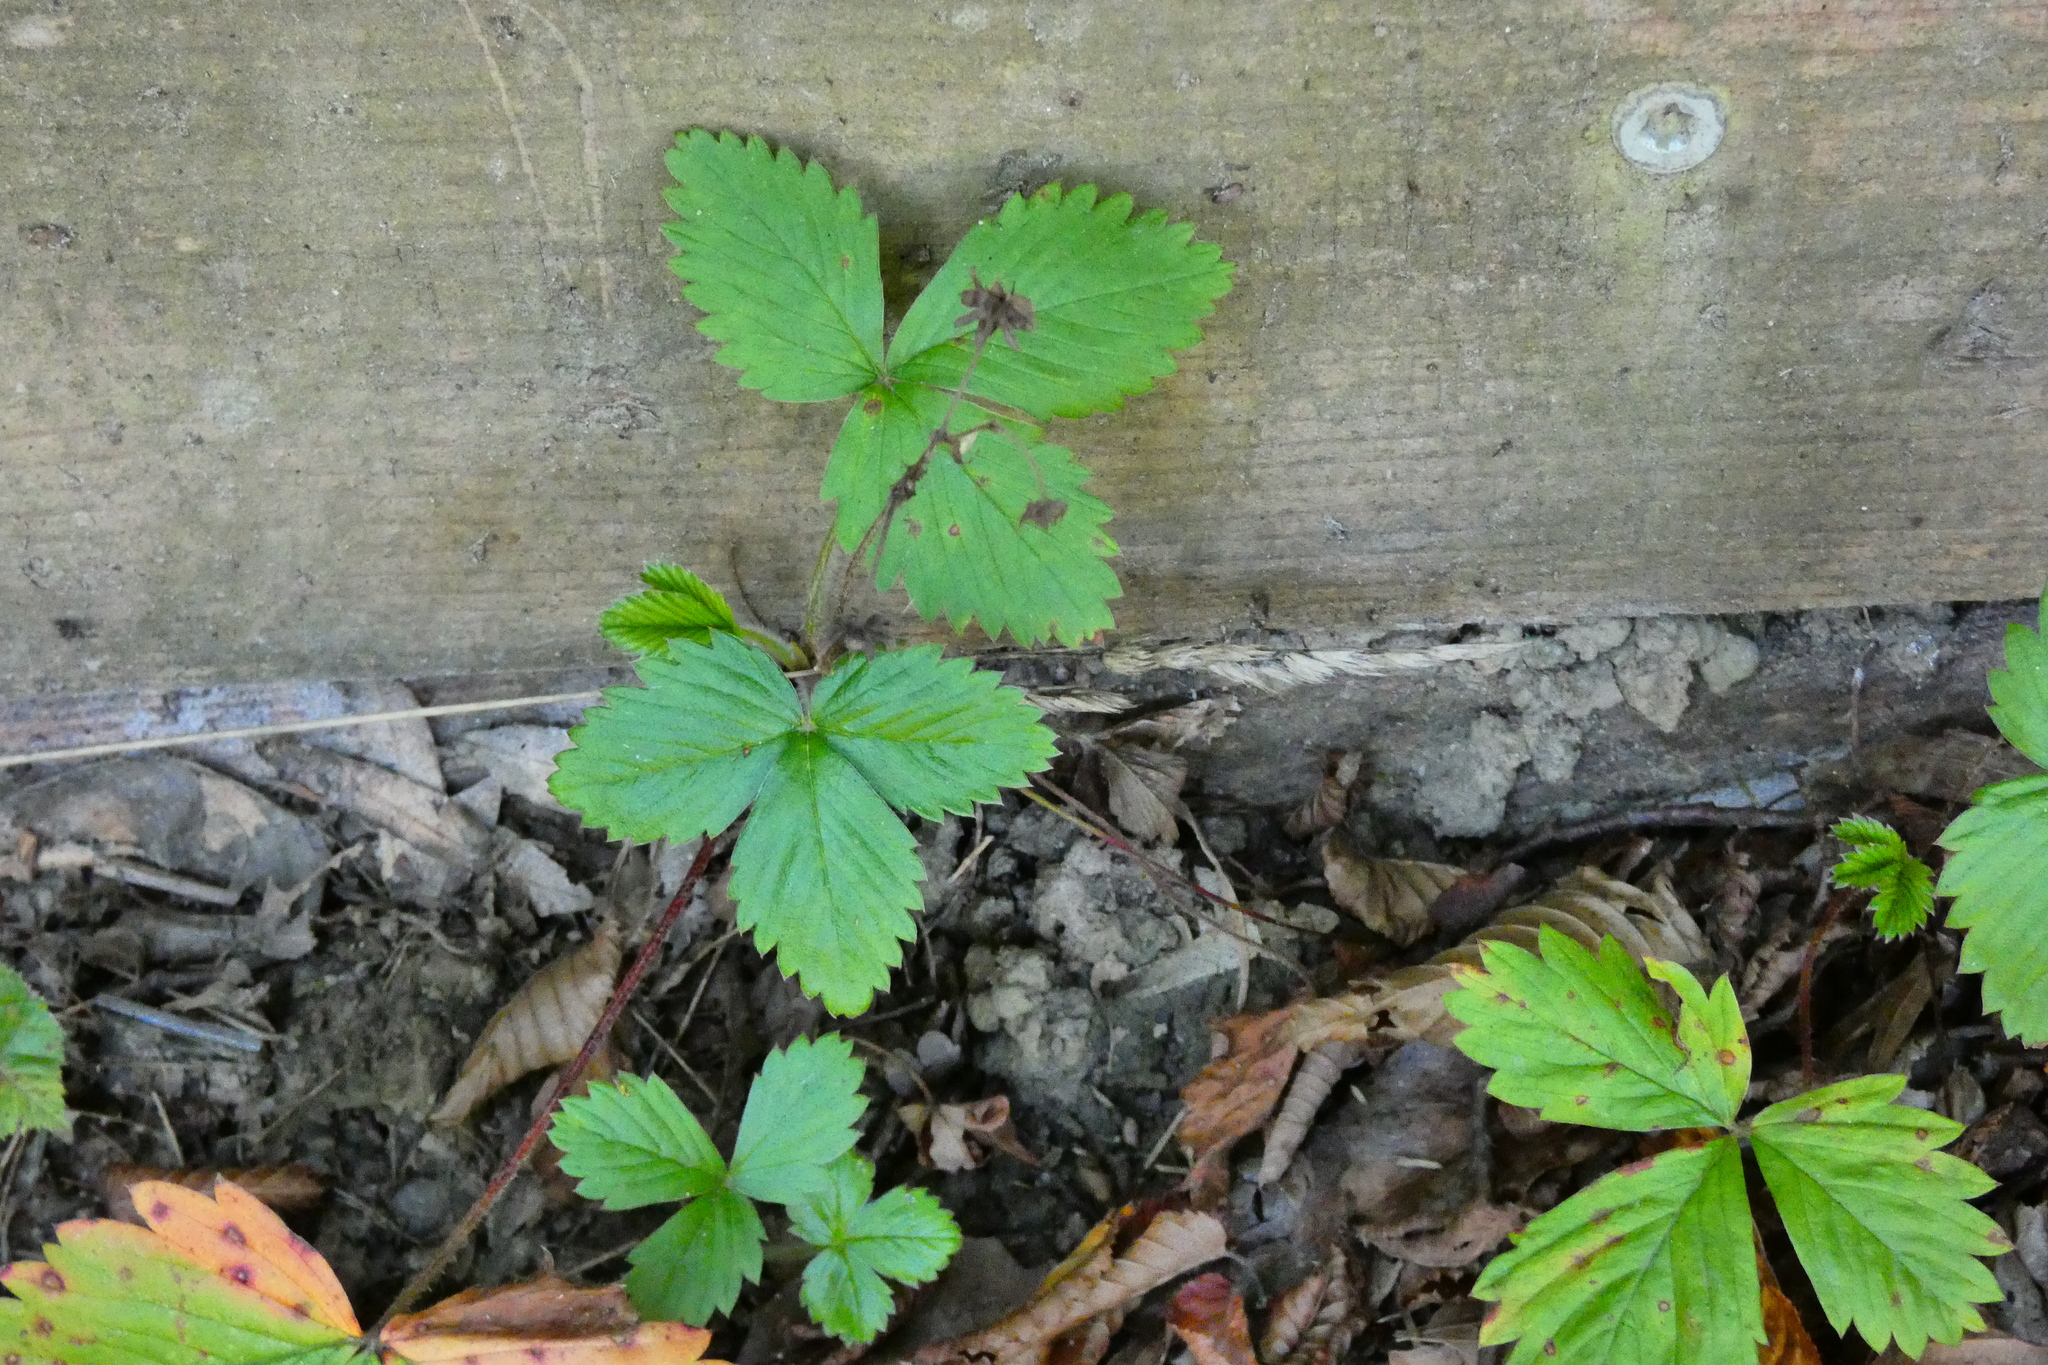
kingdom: Plantae
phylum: Tracheophyta
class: Magnoliopsida
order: Rosales
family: Rosaceae
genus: Fragaria
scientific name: Fragaria vesca
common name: Wild strawberry
